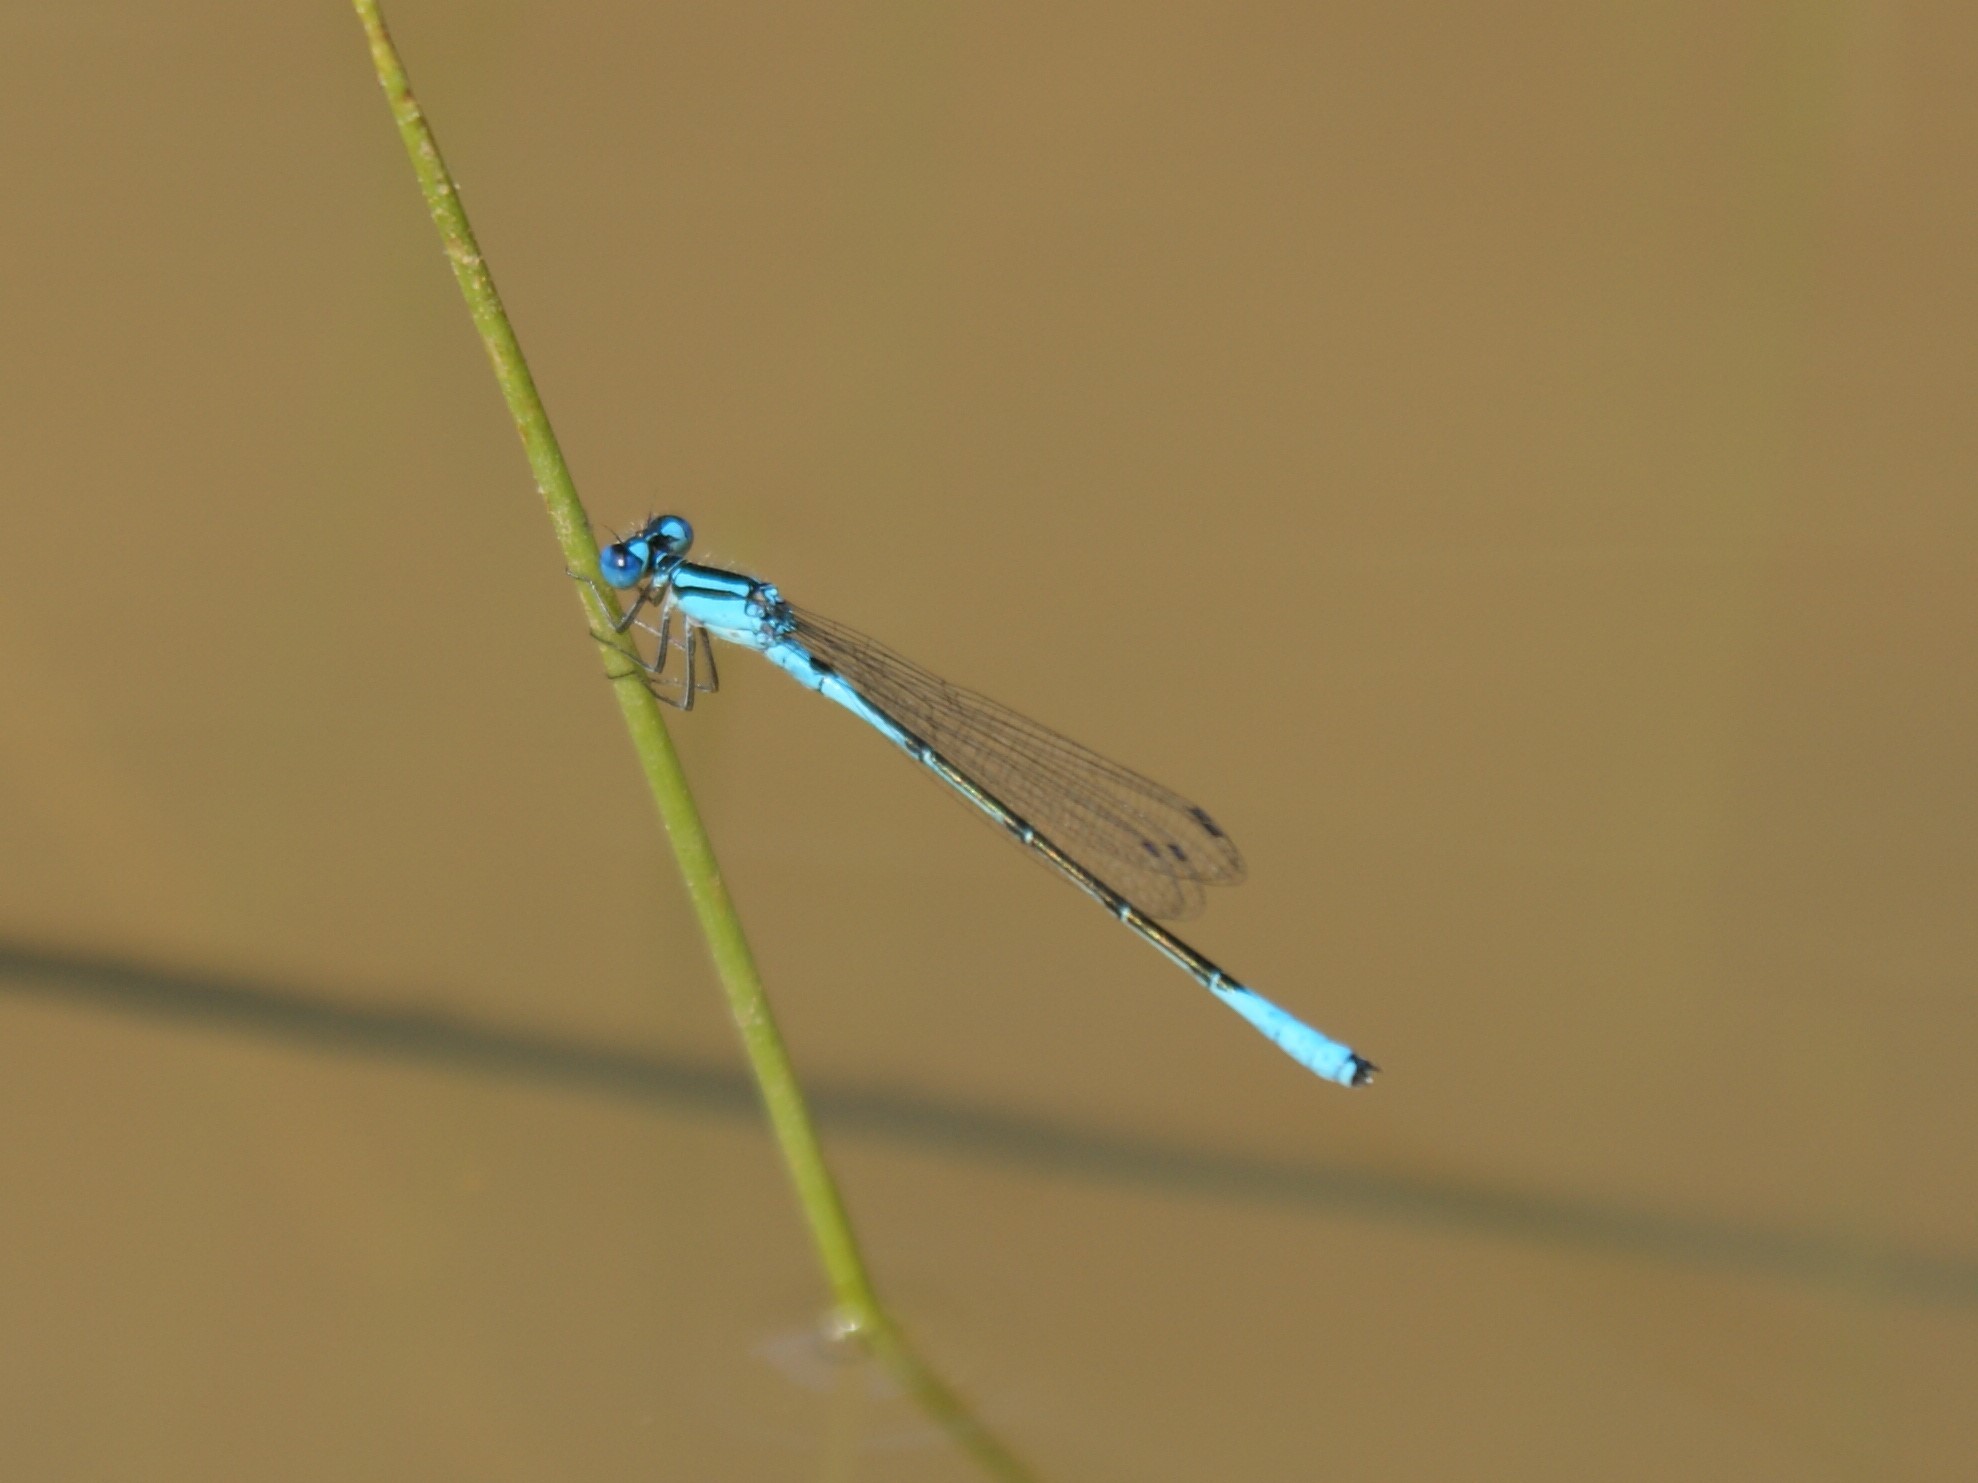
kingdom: Animalia
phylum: Arthropoda
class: Insecta
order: Odonata
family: Coenagrionidae
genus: Enallagma
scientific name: Enallagma aspersum
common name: Azure bluet
